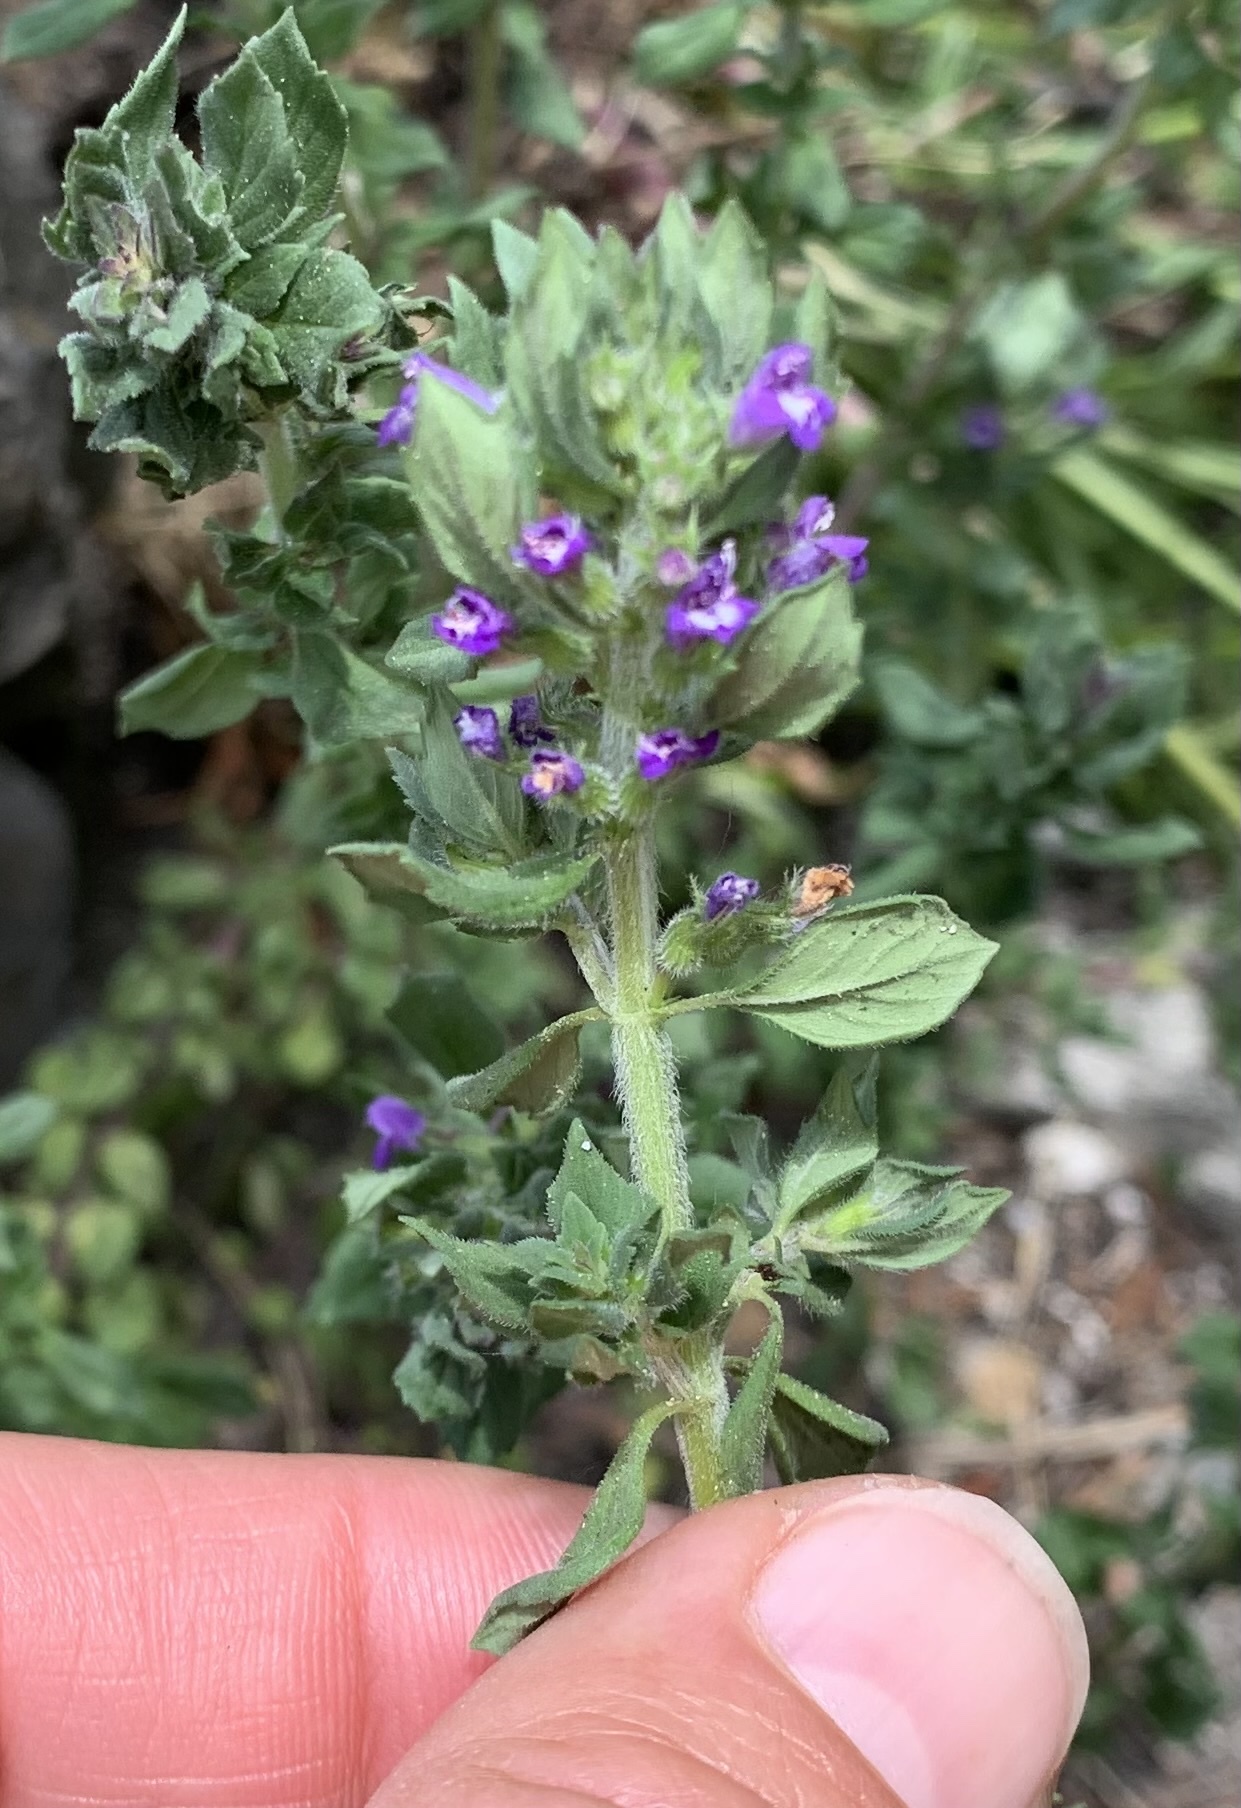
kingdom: Plantae
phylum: Tracheophyta
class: Magnoliopsida
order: Lamiales
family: Lamiaceae
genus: Clinopodium
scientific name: Clinopodium acinos
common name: Basil thyme
